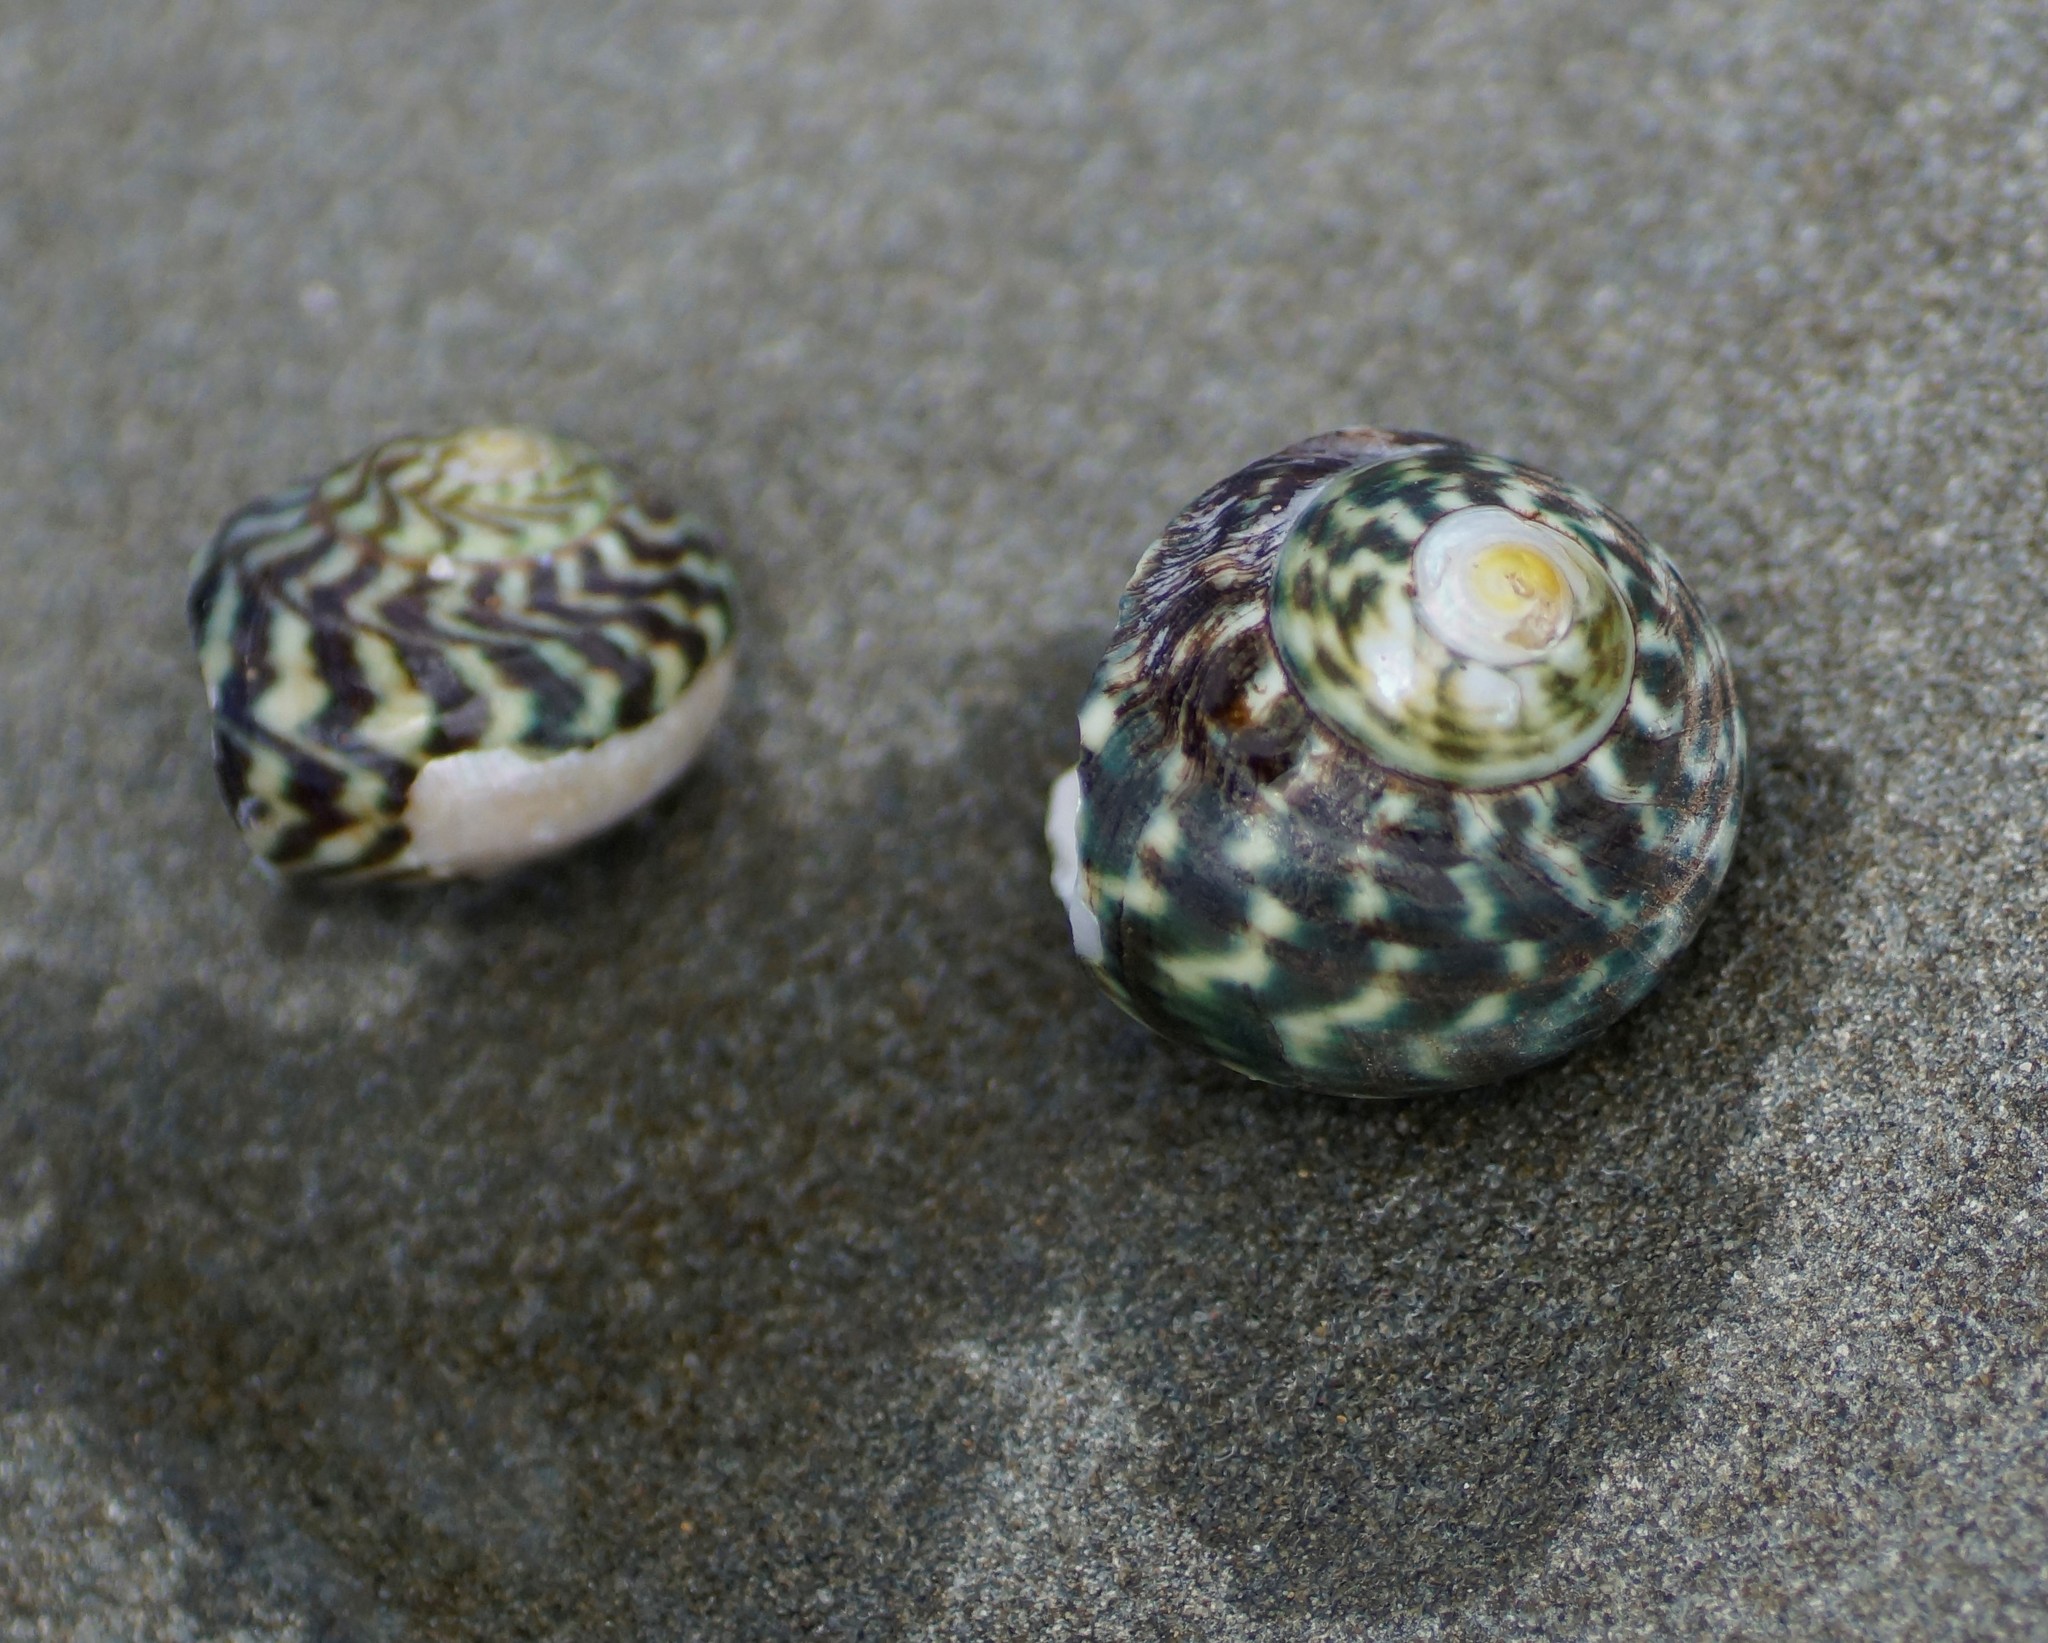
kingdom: Animalia
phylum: Mollusca
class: Gastropoda
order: Trochida
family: Turbinidae
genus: Lunella
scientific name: Lunella undulata
